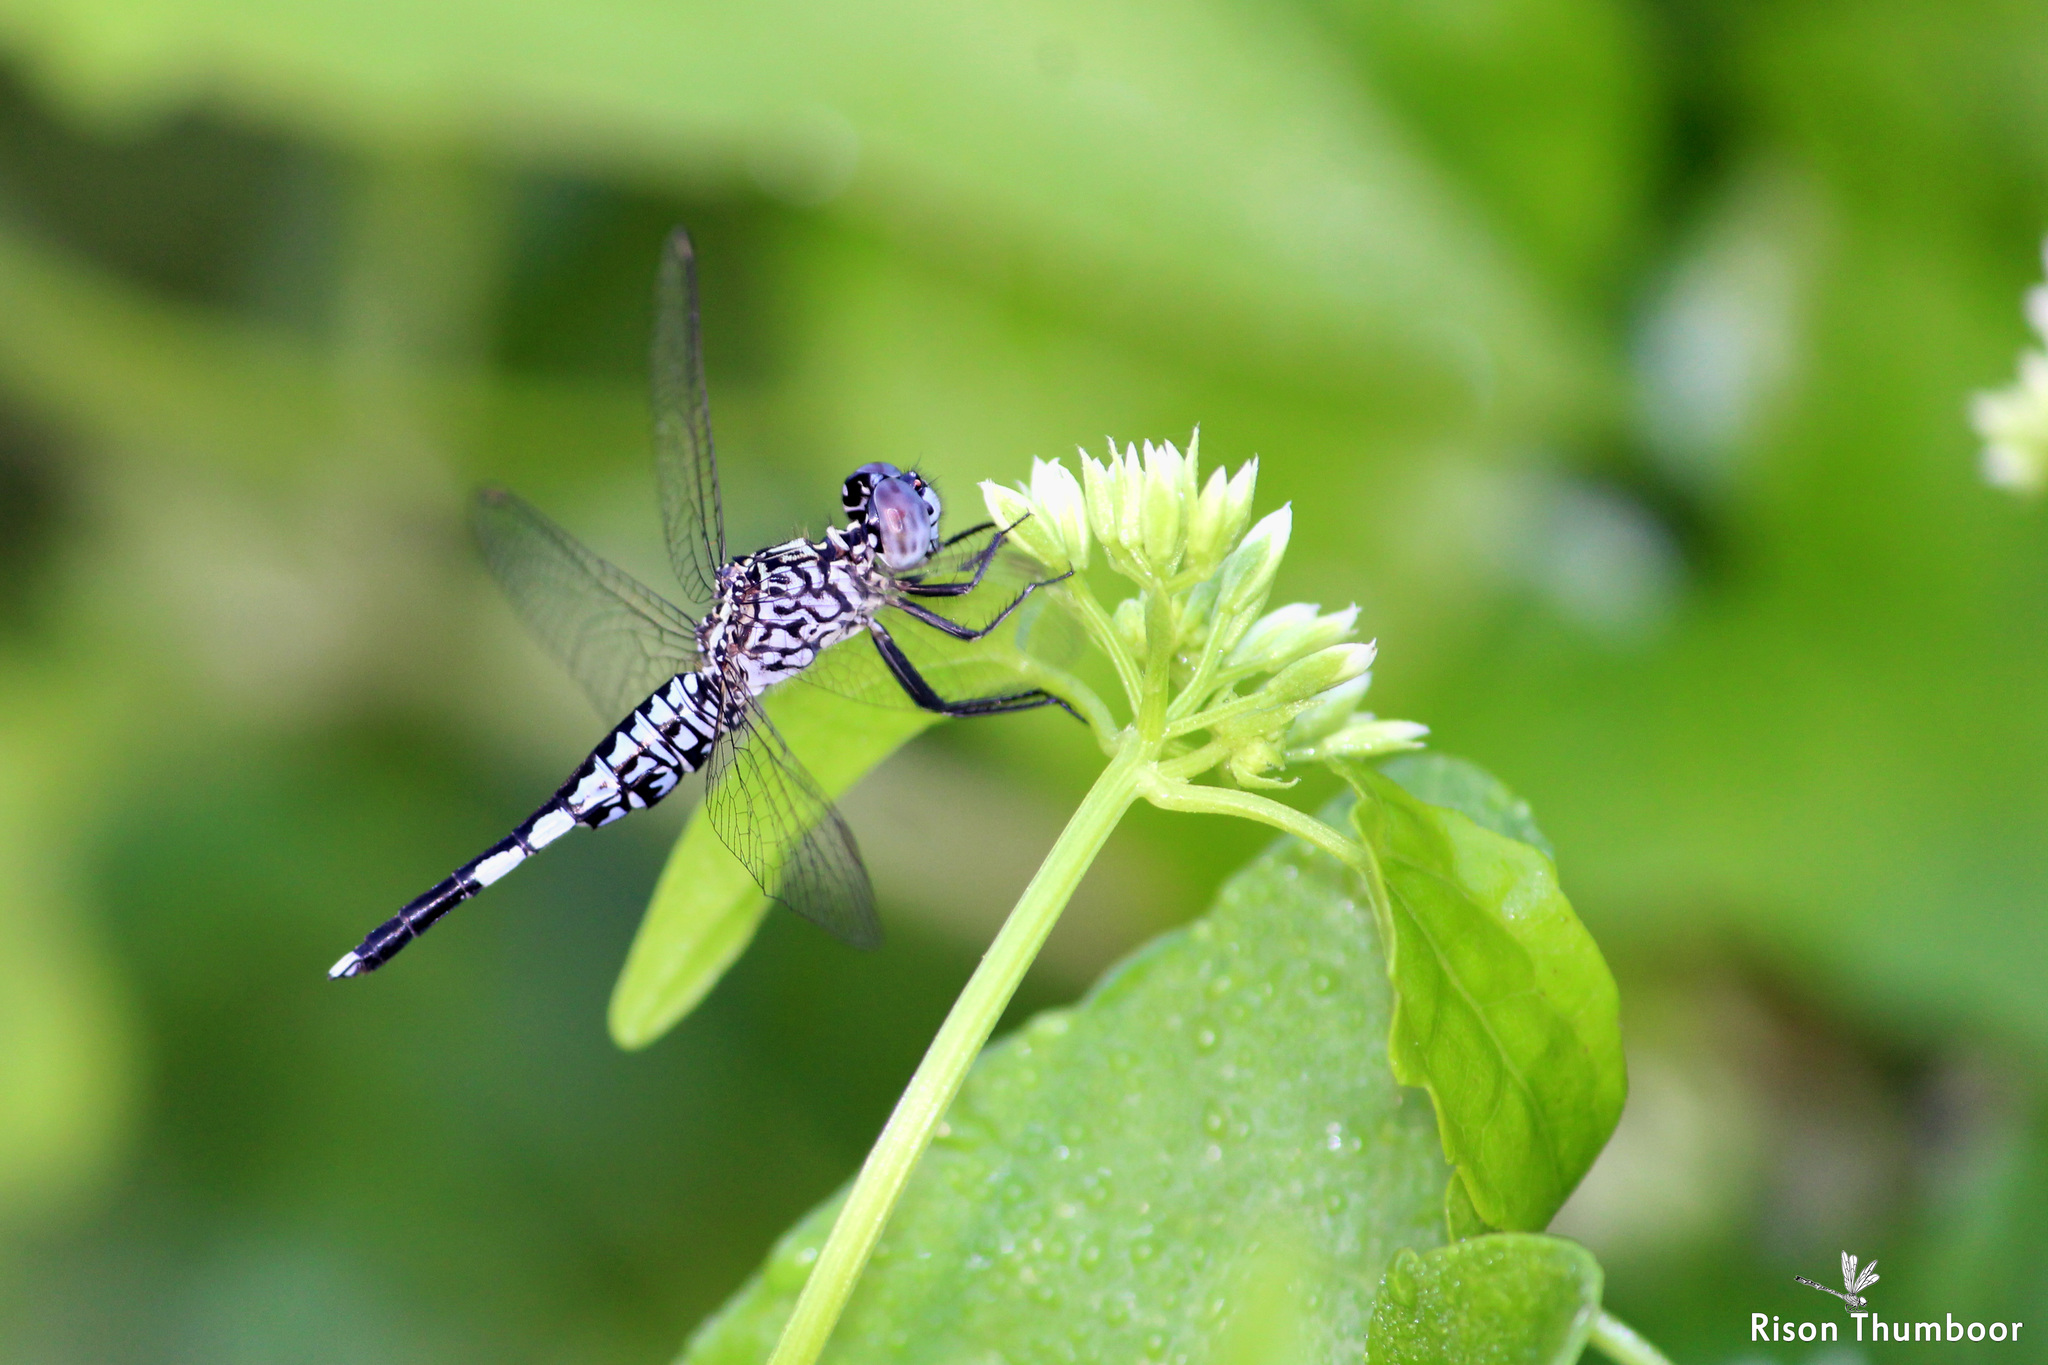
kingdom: Animalia
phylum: Arthropoda
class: Insecta
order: Odonata
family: Libellulidae
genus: Acisoma
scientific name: Acisoma panorpoides
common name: Asian pintail
